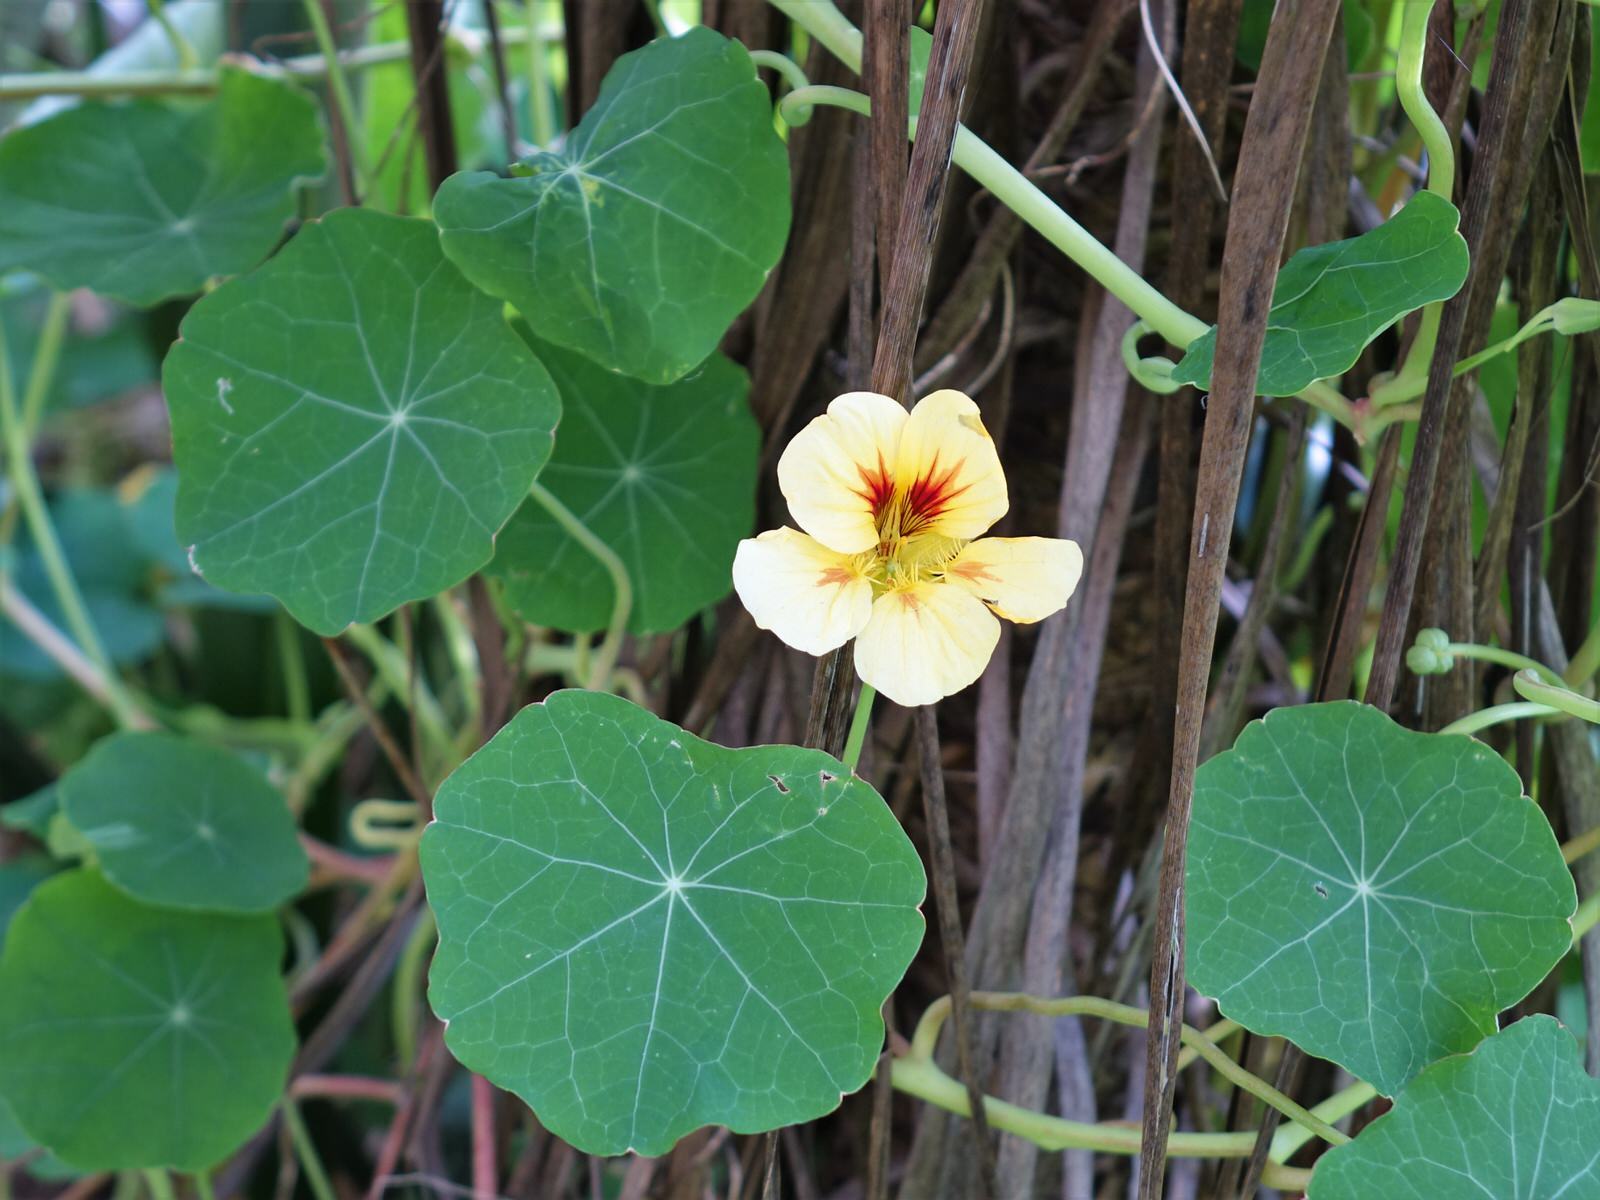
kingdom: Plantae
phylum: Tracheophyta
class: Magnoliopsida
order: Brassicales
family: Tropaeolaceae
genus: Tropaeolum
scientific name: Tropaeolum majus
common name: Nasturtium
